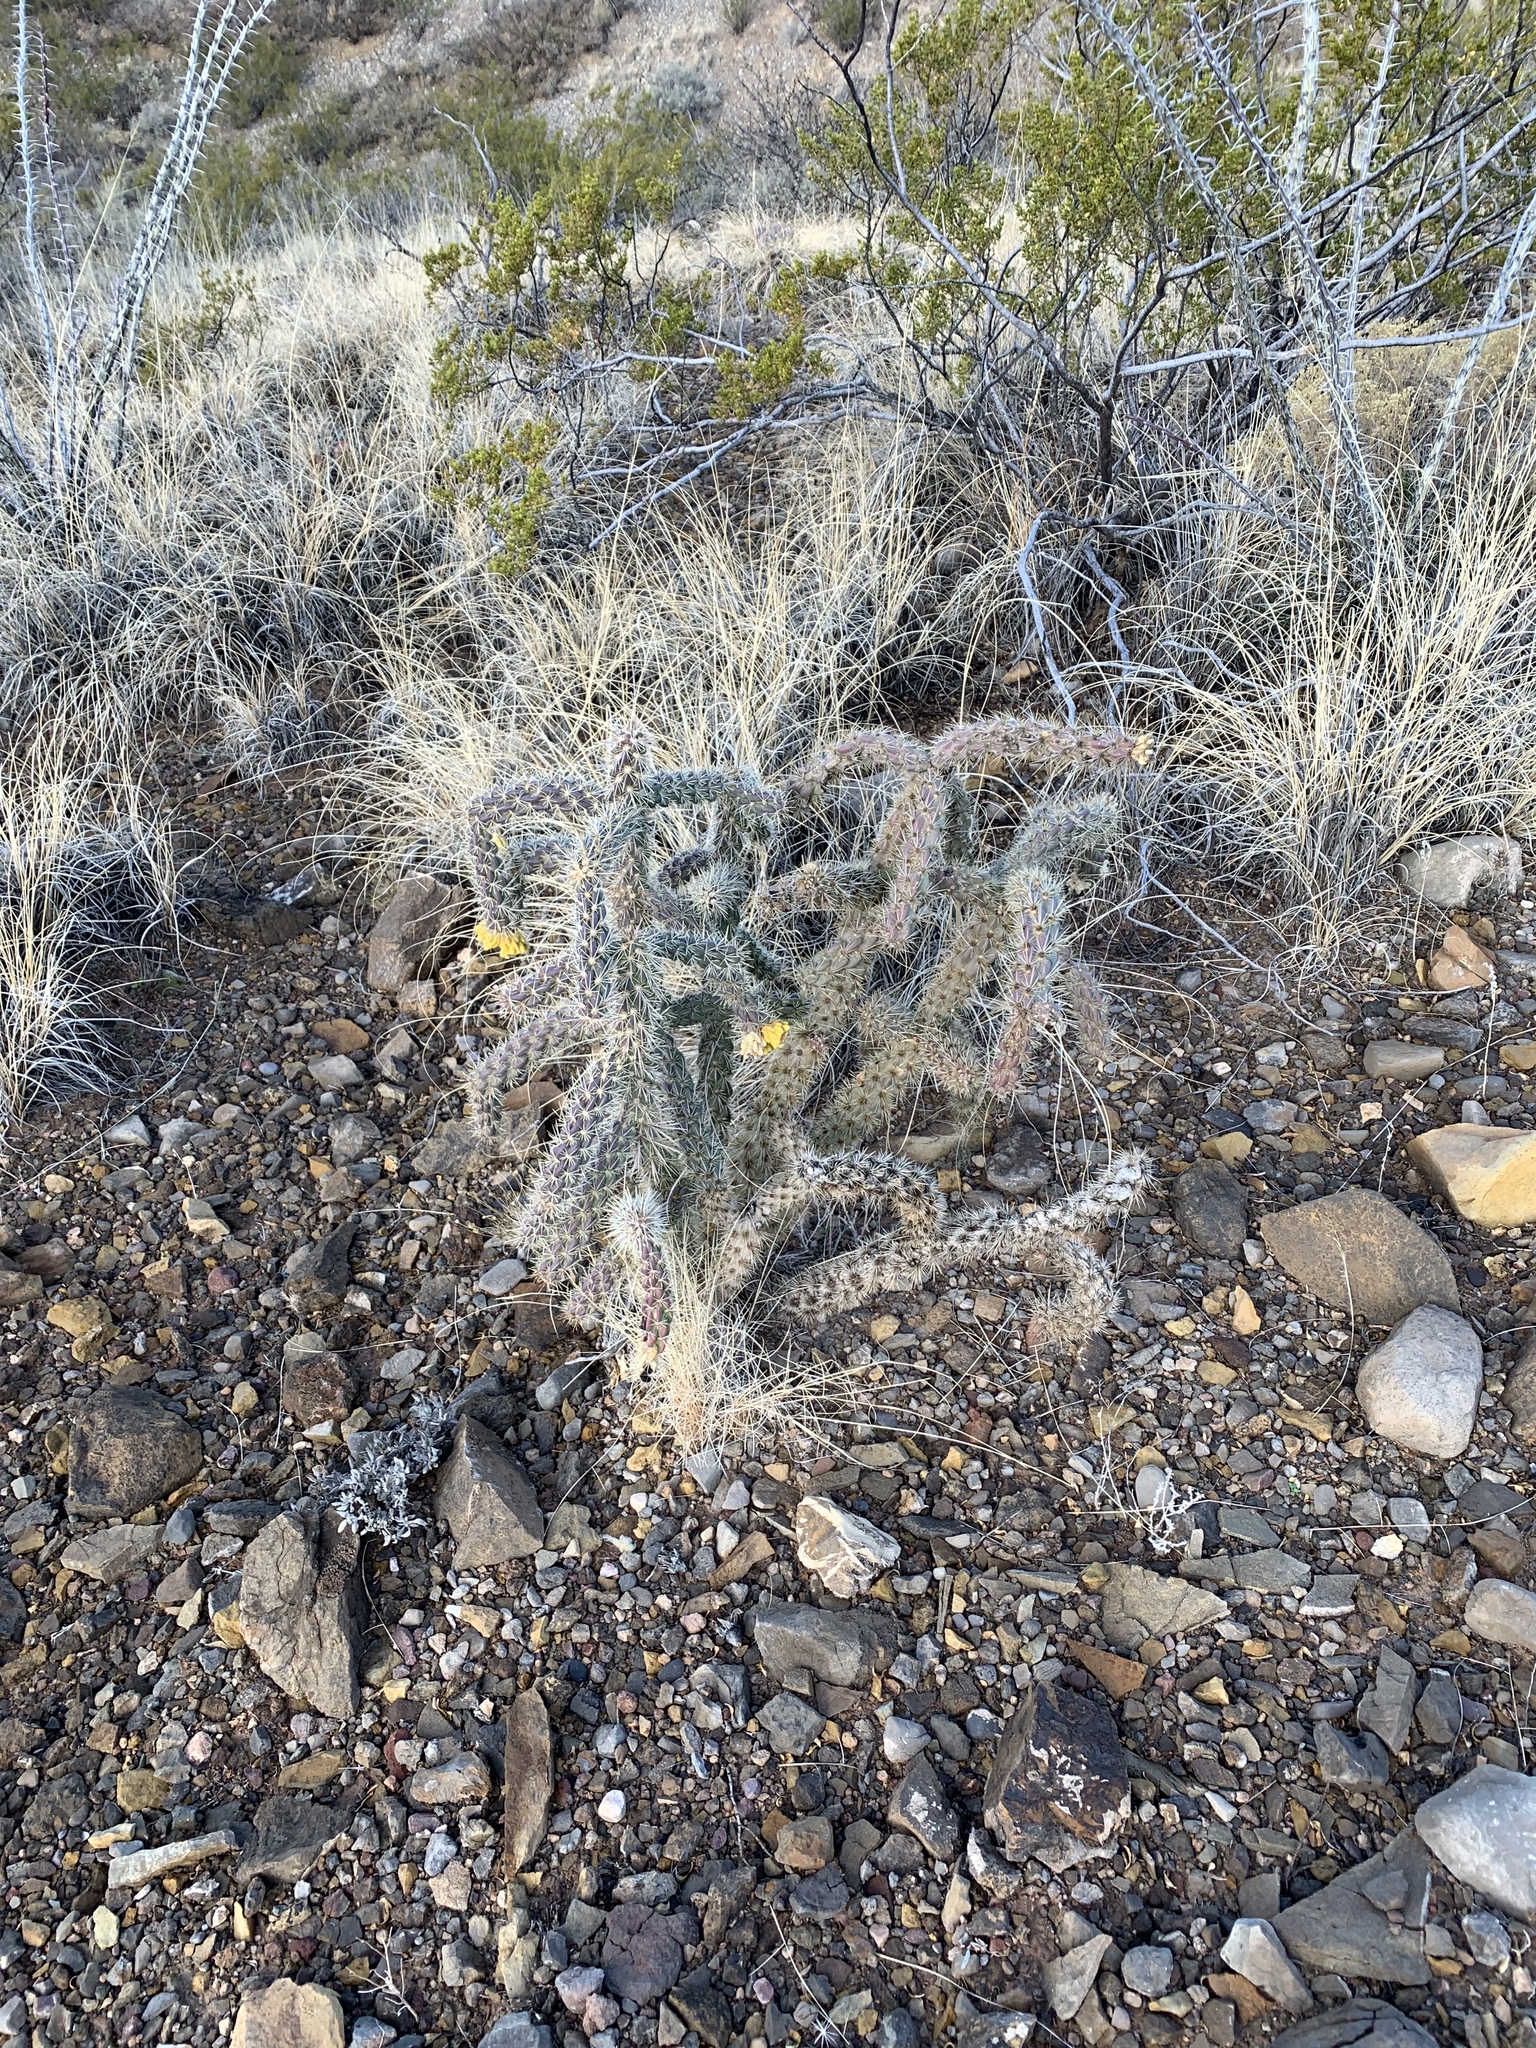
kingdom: Plantae
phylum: Tracheophyta
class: Magnoliopsida
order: Caryophyllales
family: Cactaceae
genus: Cylindropuntia
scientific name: Cylindropuntia imbricata
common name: Candelabrum cactus
